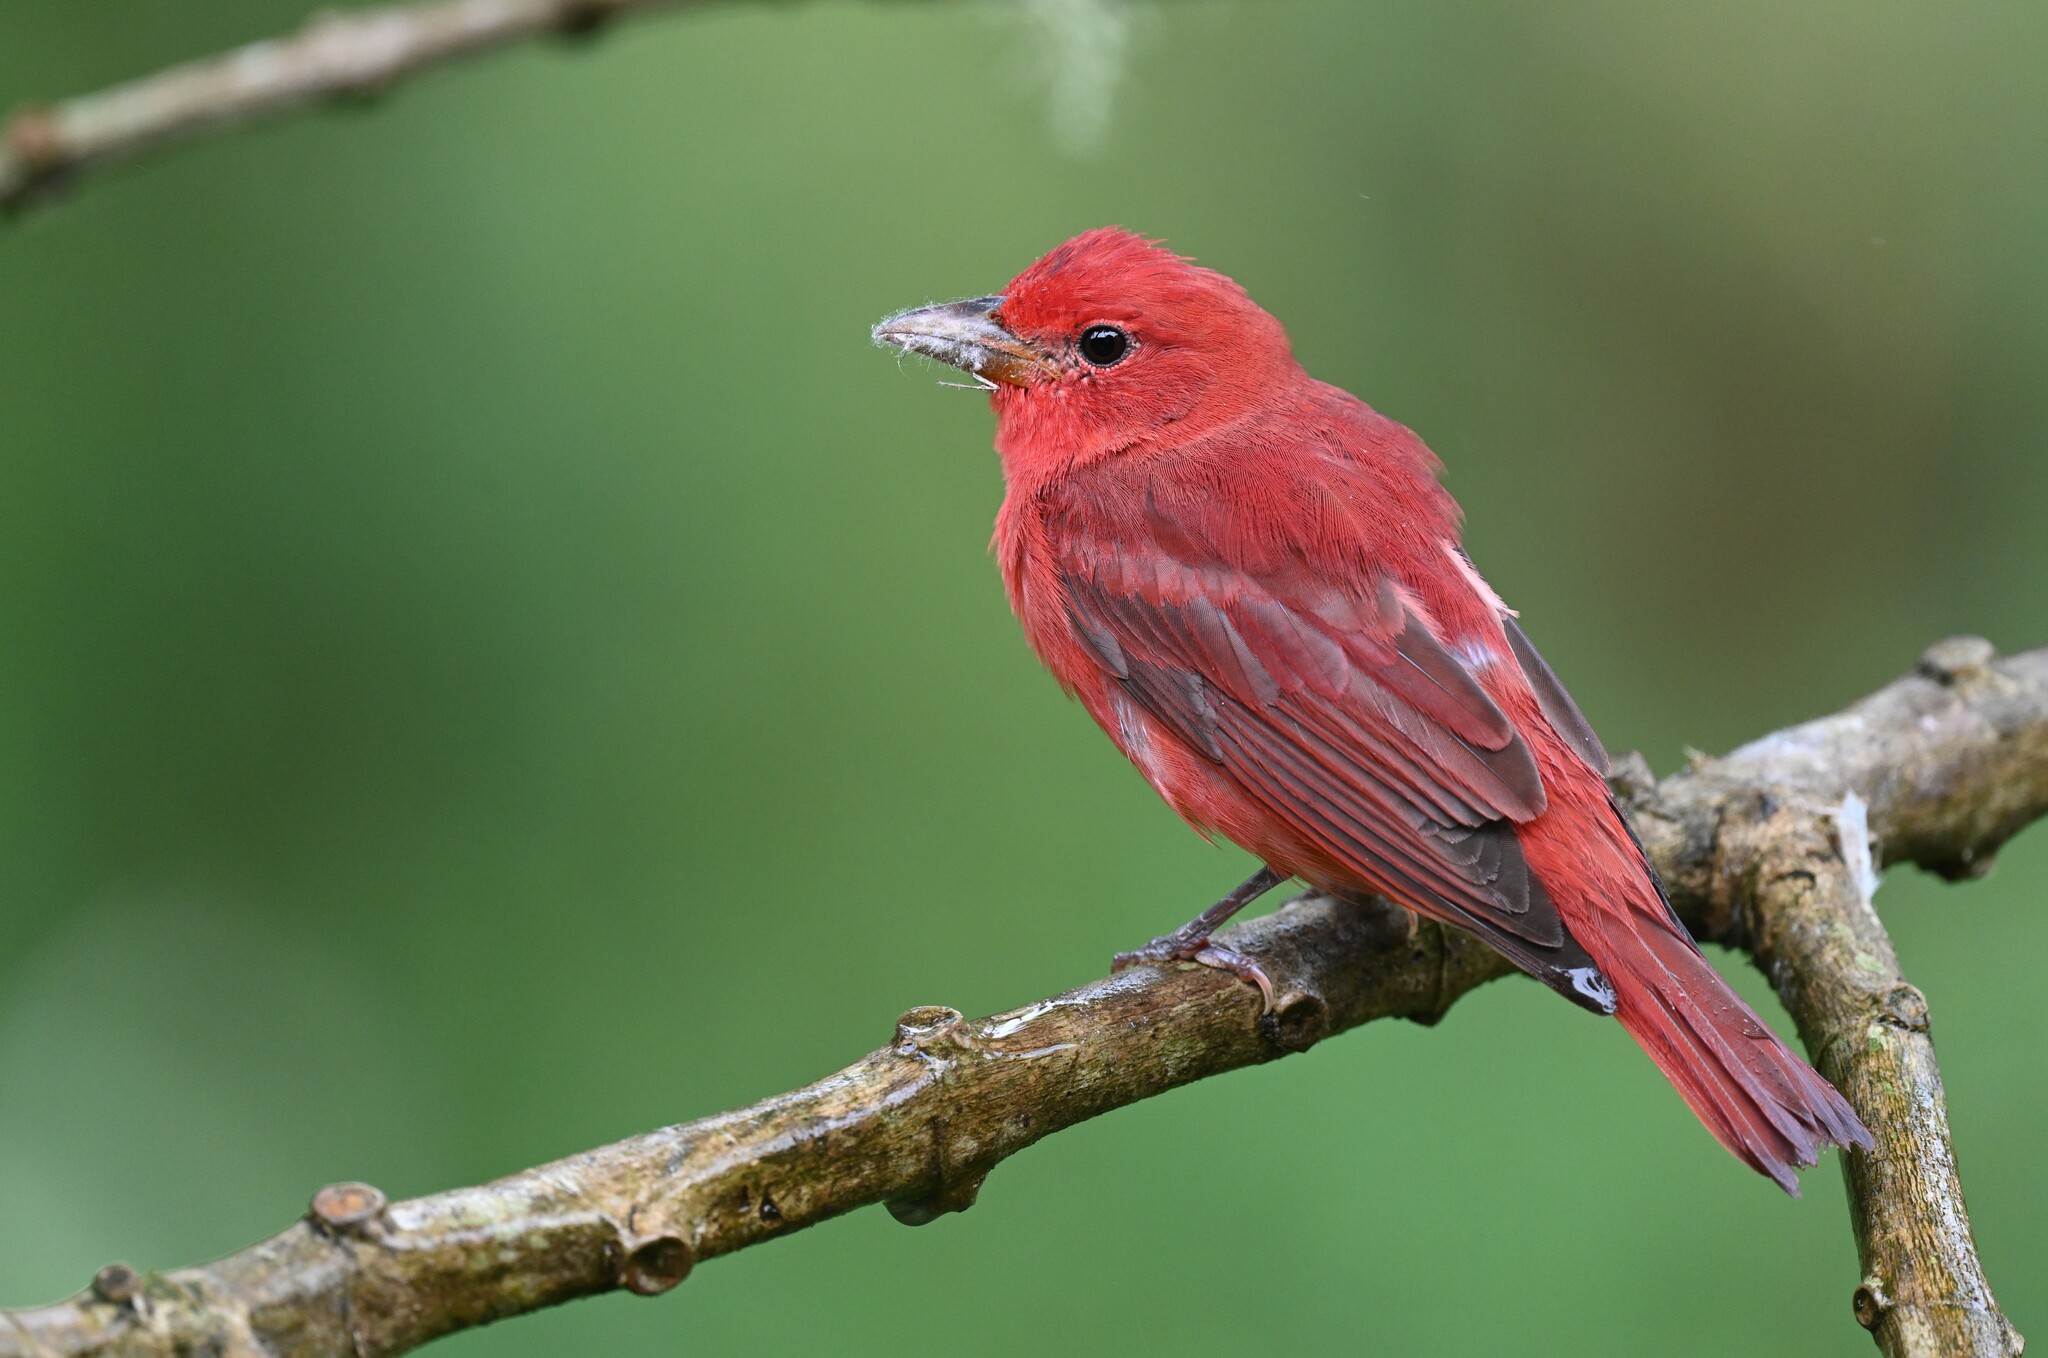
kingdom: Animalia
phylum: Chordata
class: Aves
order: Passeriformes
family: Cardinalidae
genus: Piranga
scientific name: Piranga rubra
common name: Summer tanager
